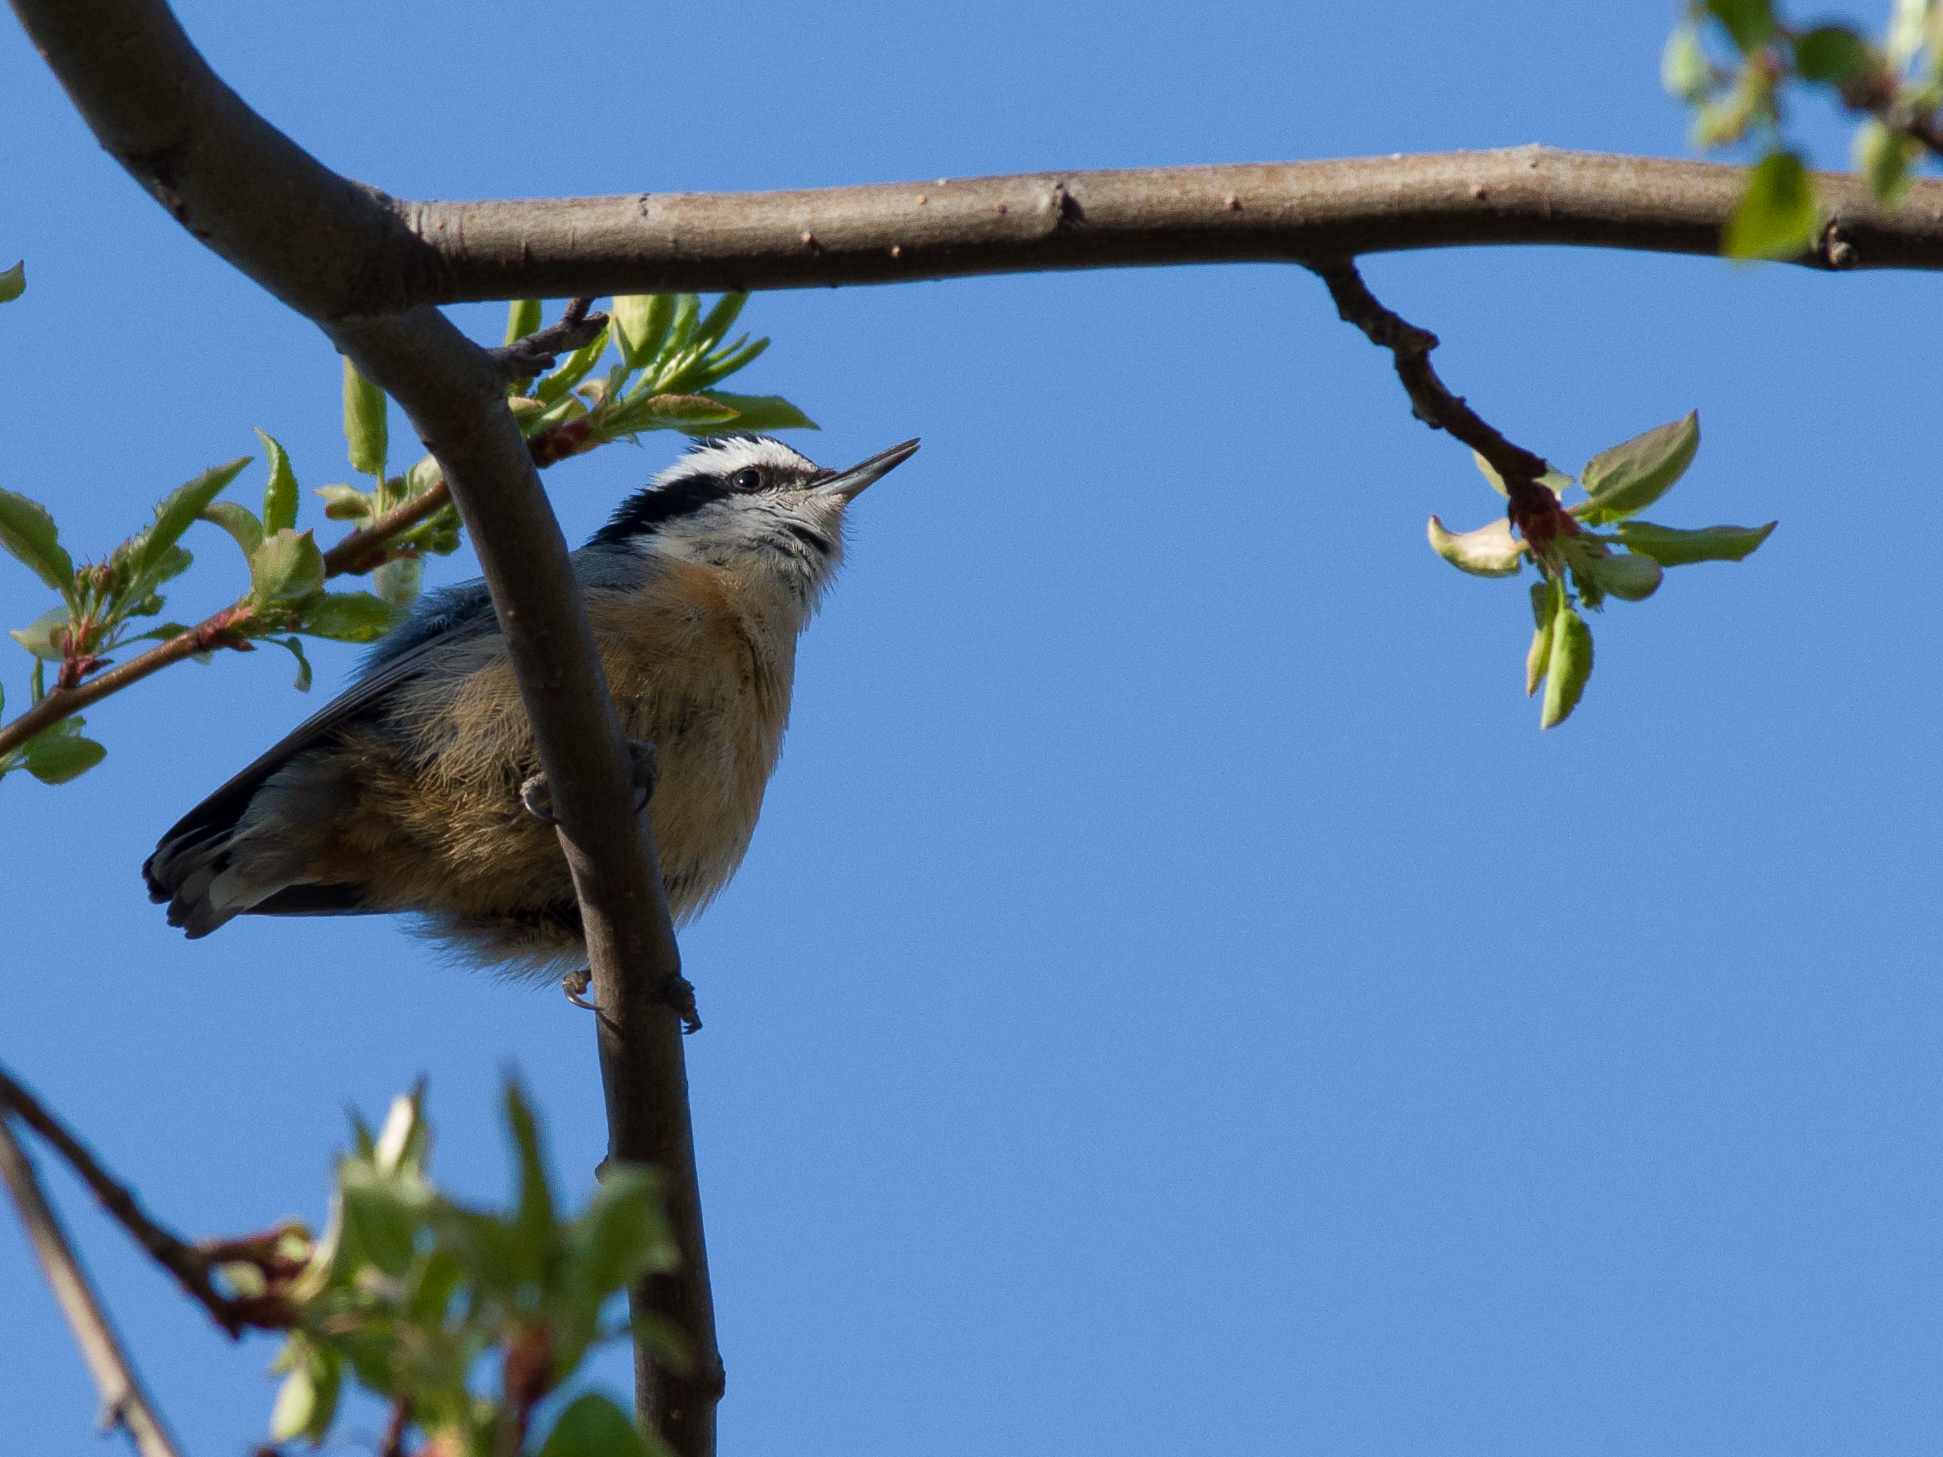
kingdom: Animalia
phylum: Chordata
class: Aves
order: Passeriformes
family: Sittidae
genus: Sitta
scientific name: Sitta canadensis
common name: Red-breasted nuthatch
